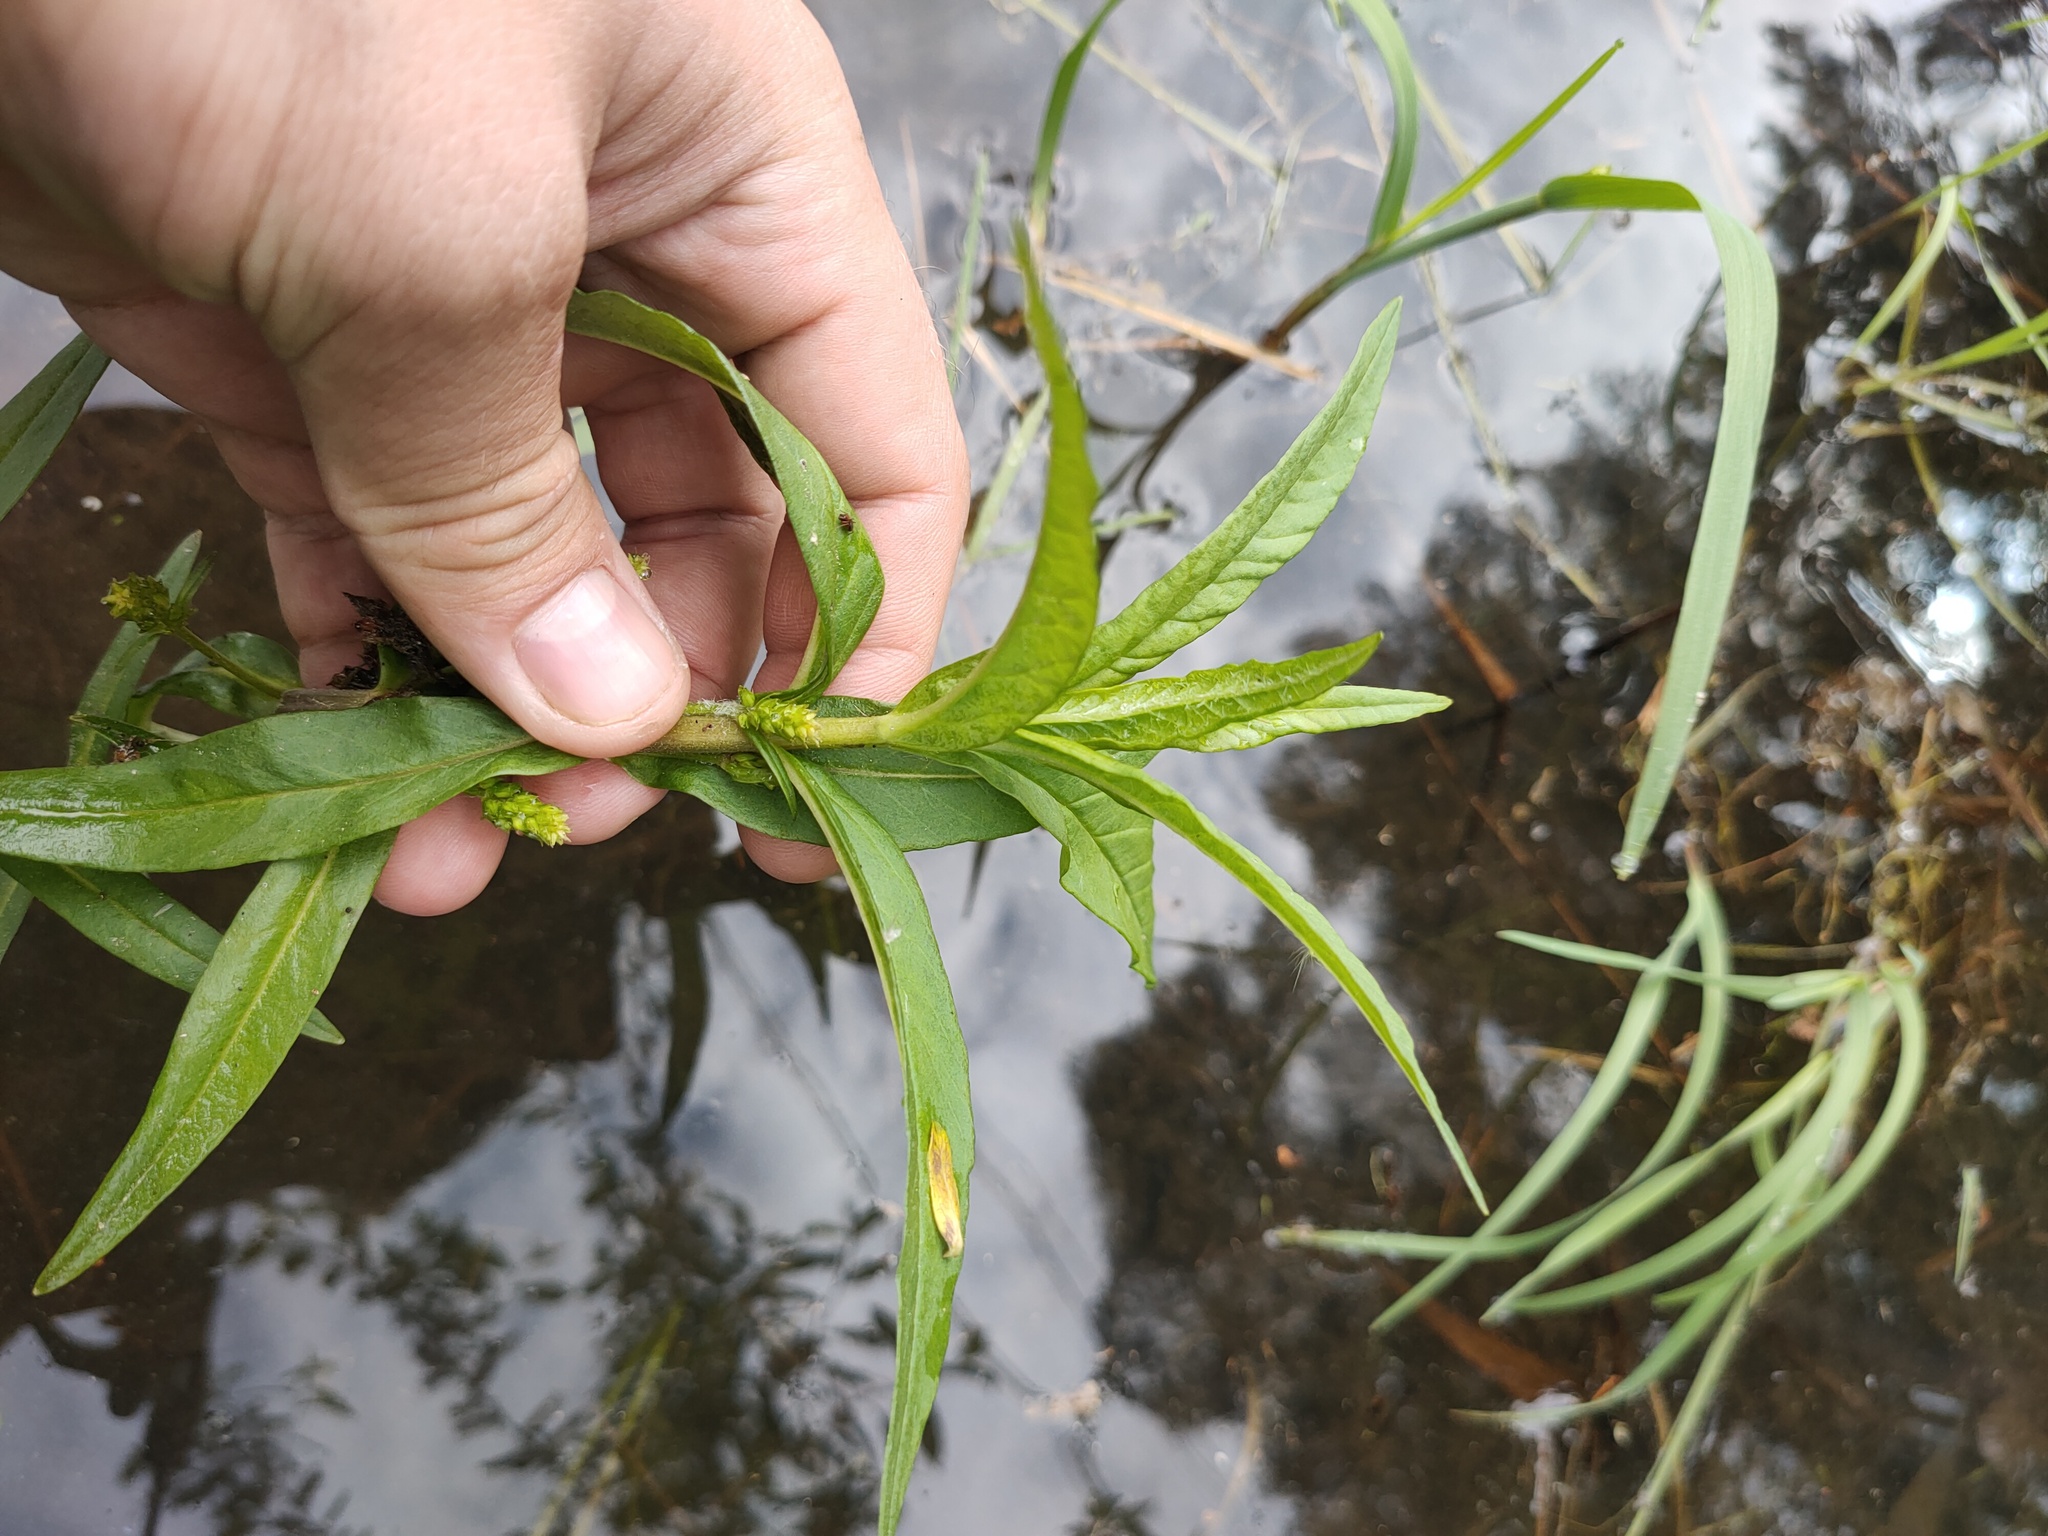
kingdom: Plantae
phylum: Tracheophyta
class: Magnoliopsida
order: Ericales
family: Primulaceae
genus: Lysimachia
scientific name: Lysimachia thyrsiflora
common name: Tufted loosestrife
